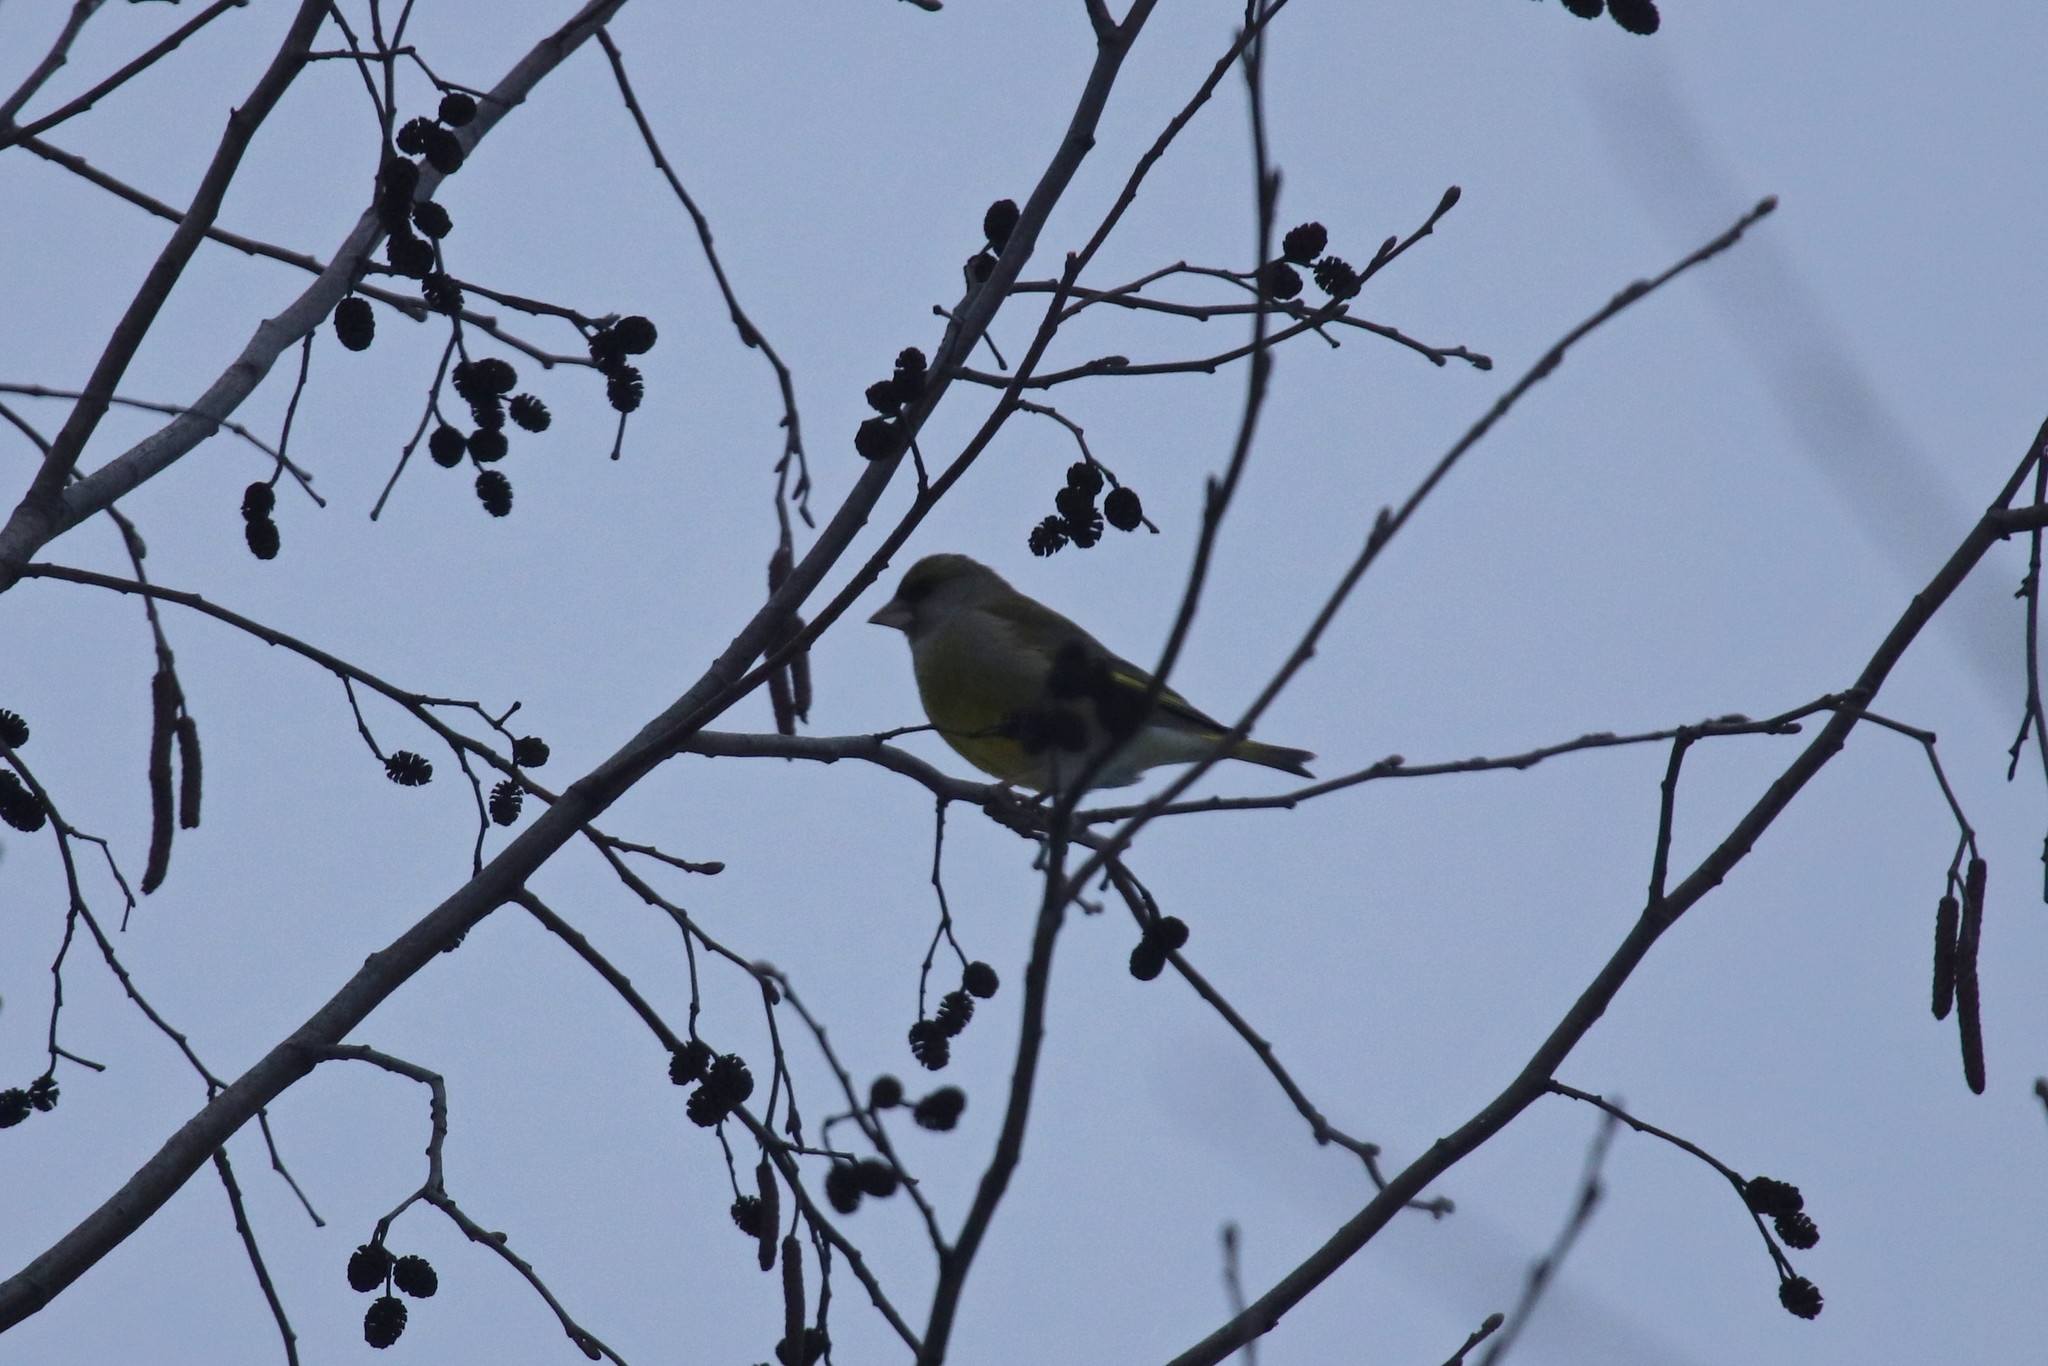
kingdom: Plantae
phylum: Tracheophyta
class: Liliopsida
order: Poales
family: Poaceae
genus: Chloris
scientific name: Chloris chloris
